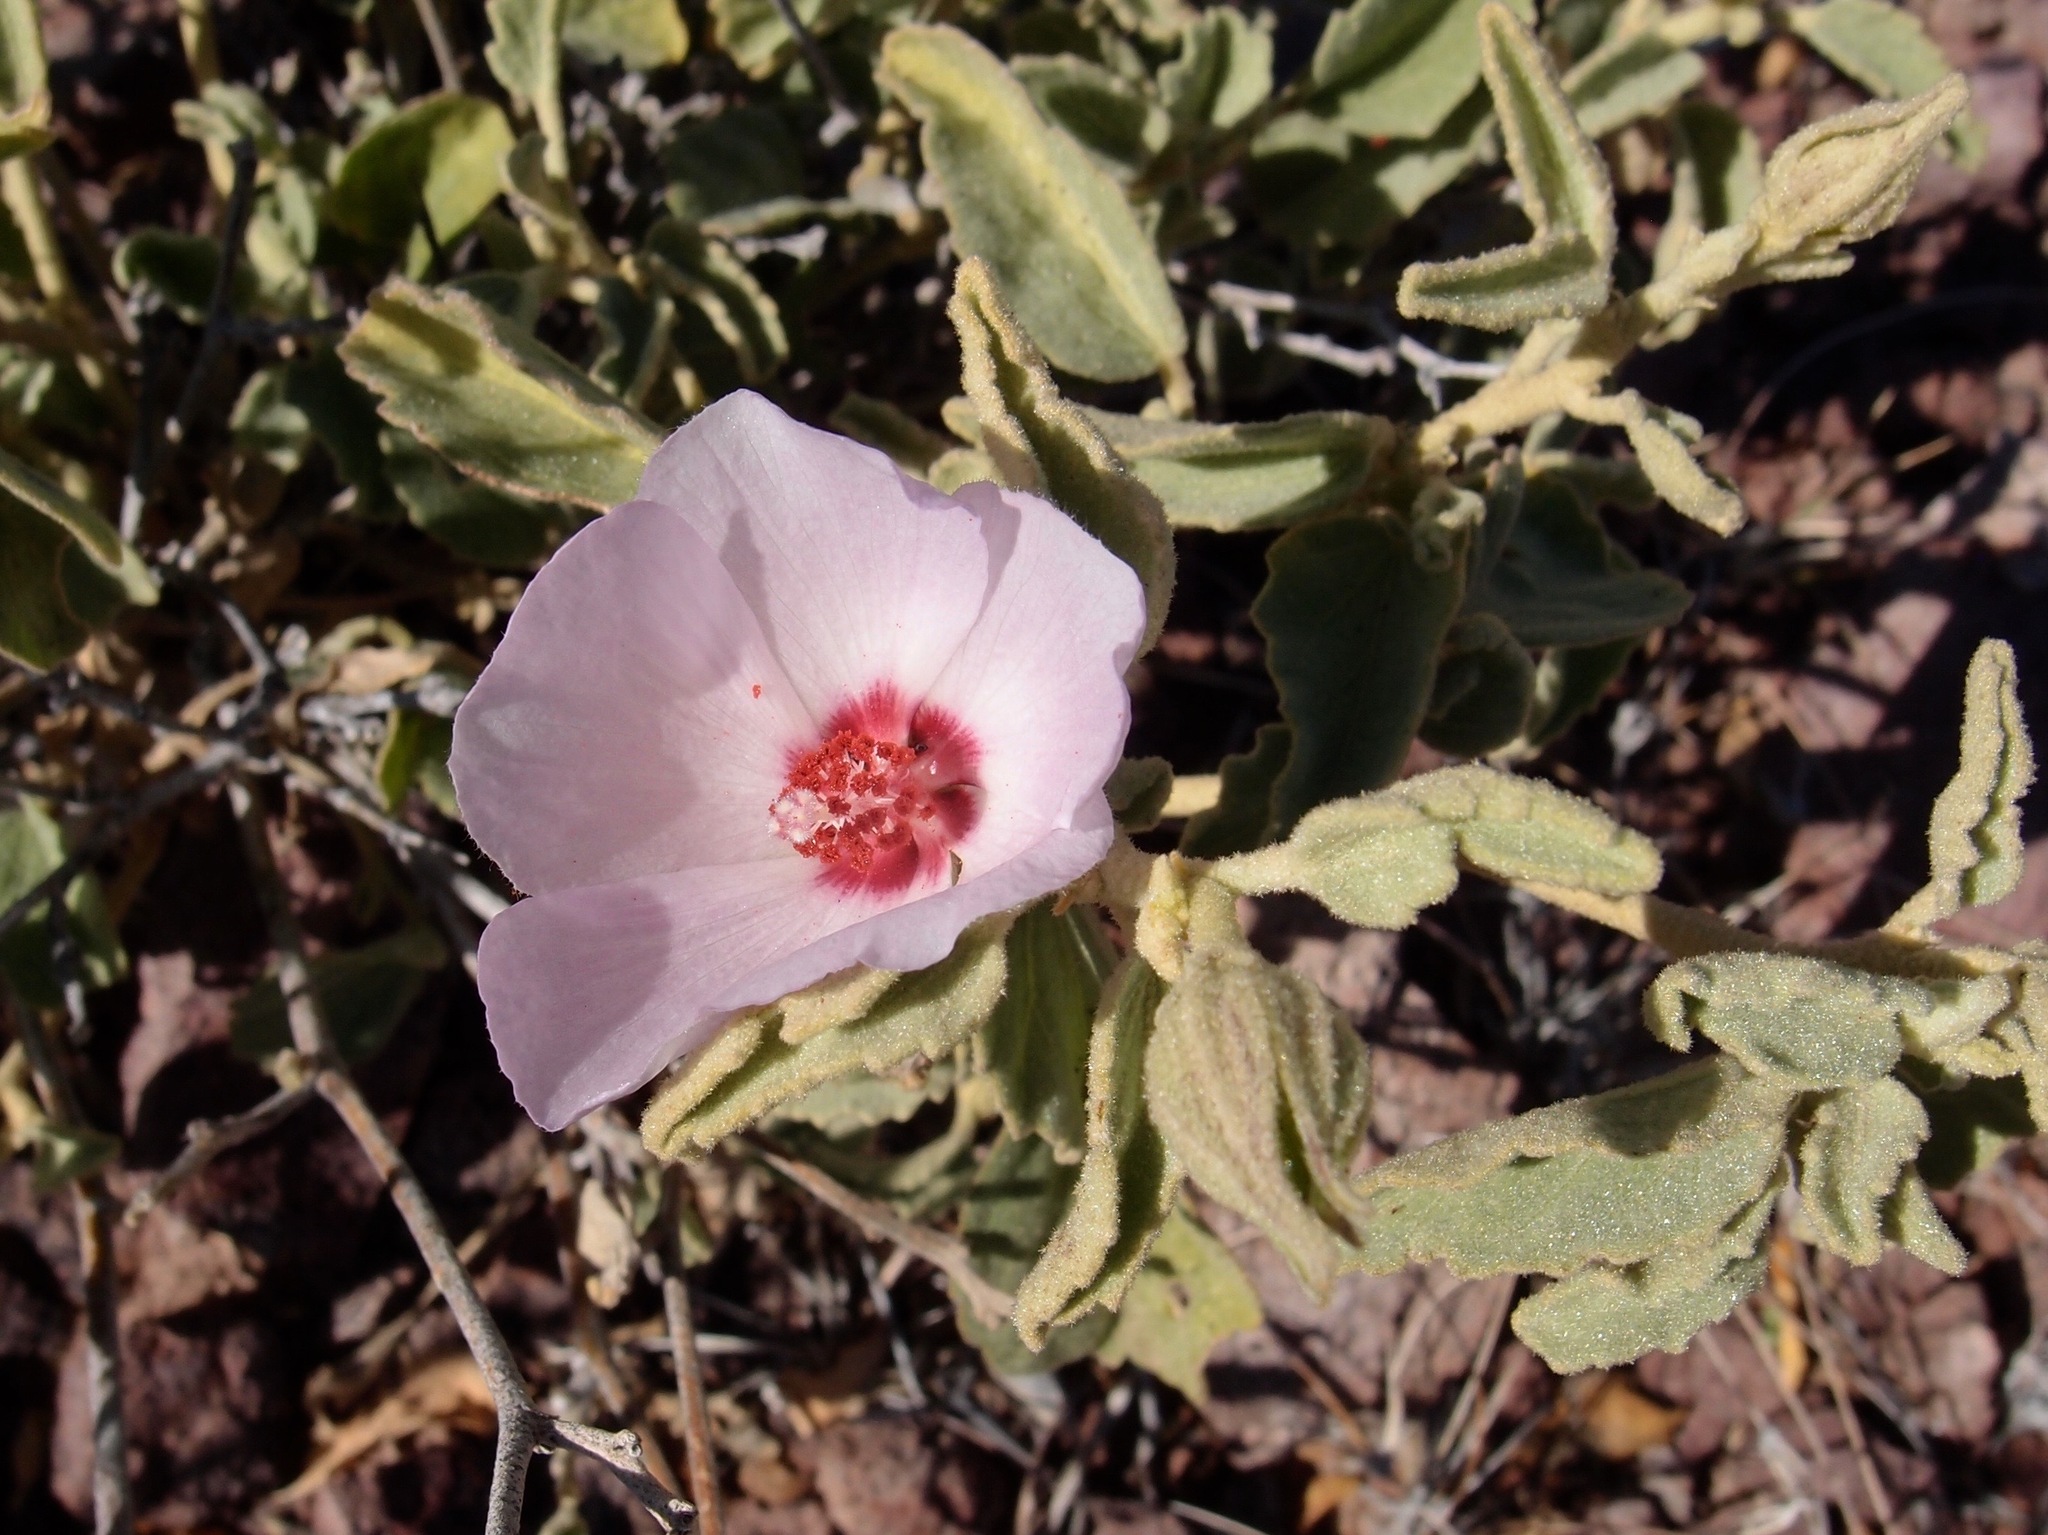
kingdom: Plantae
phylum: Tracheophyta
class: Magnoliopsida
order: Malvales
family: Malvaceae
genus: Hibiscus
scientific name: Hibiscus denudatus
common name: Paleface
